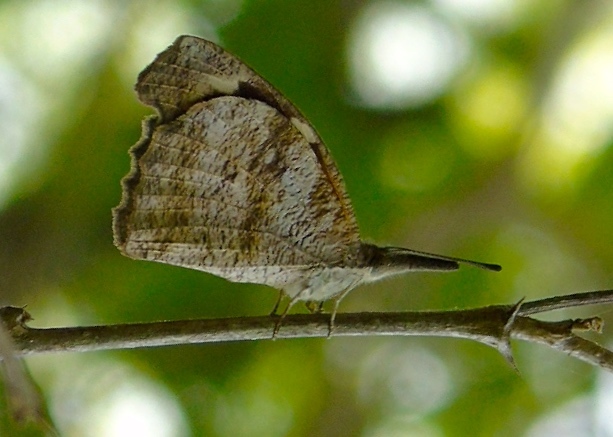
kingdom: Animalia
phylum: Arthropoda
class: Insecta
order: Lepidoptera
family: Nymphalidae
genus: Libytheana
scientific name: Libytheana carinenta
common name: American snout
